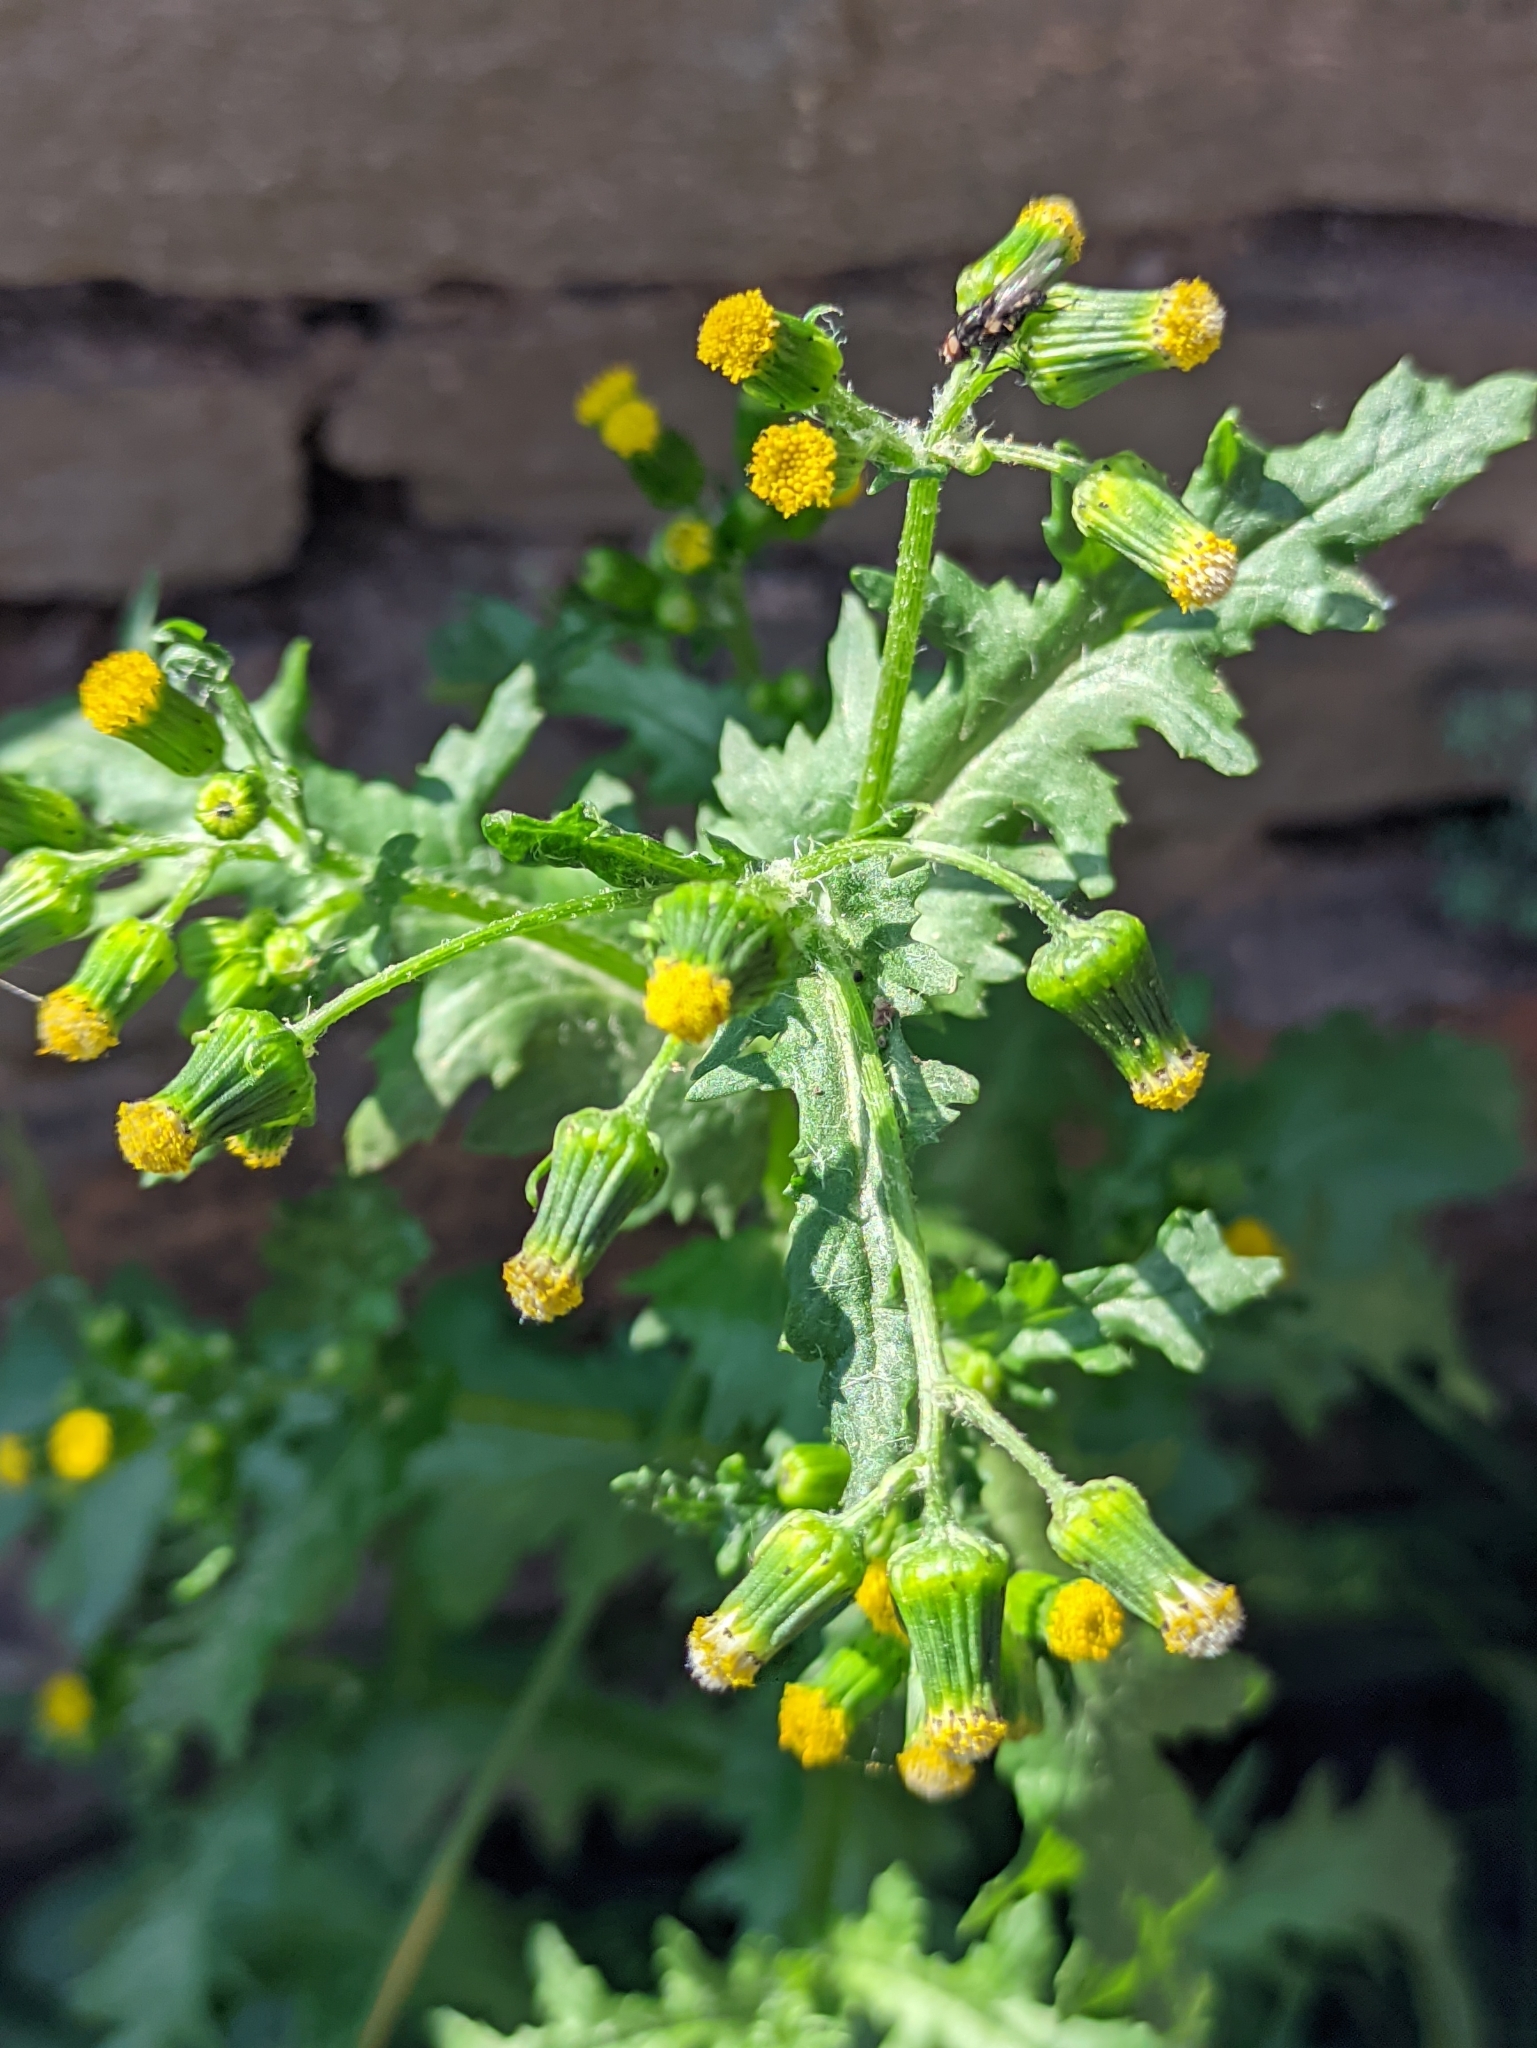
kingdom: Plantae
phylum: Tracheophyta
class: Magnoliopsida
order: Asterales
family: Asteraceae
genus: Senecio
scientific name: Senecio vulgaris
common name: Old-man-in-the-spring
